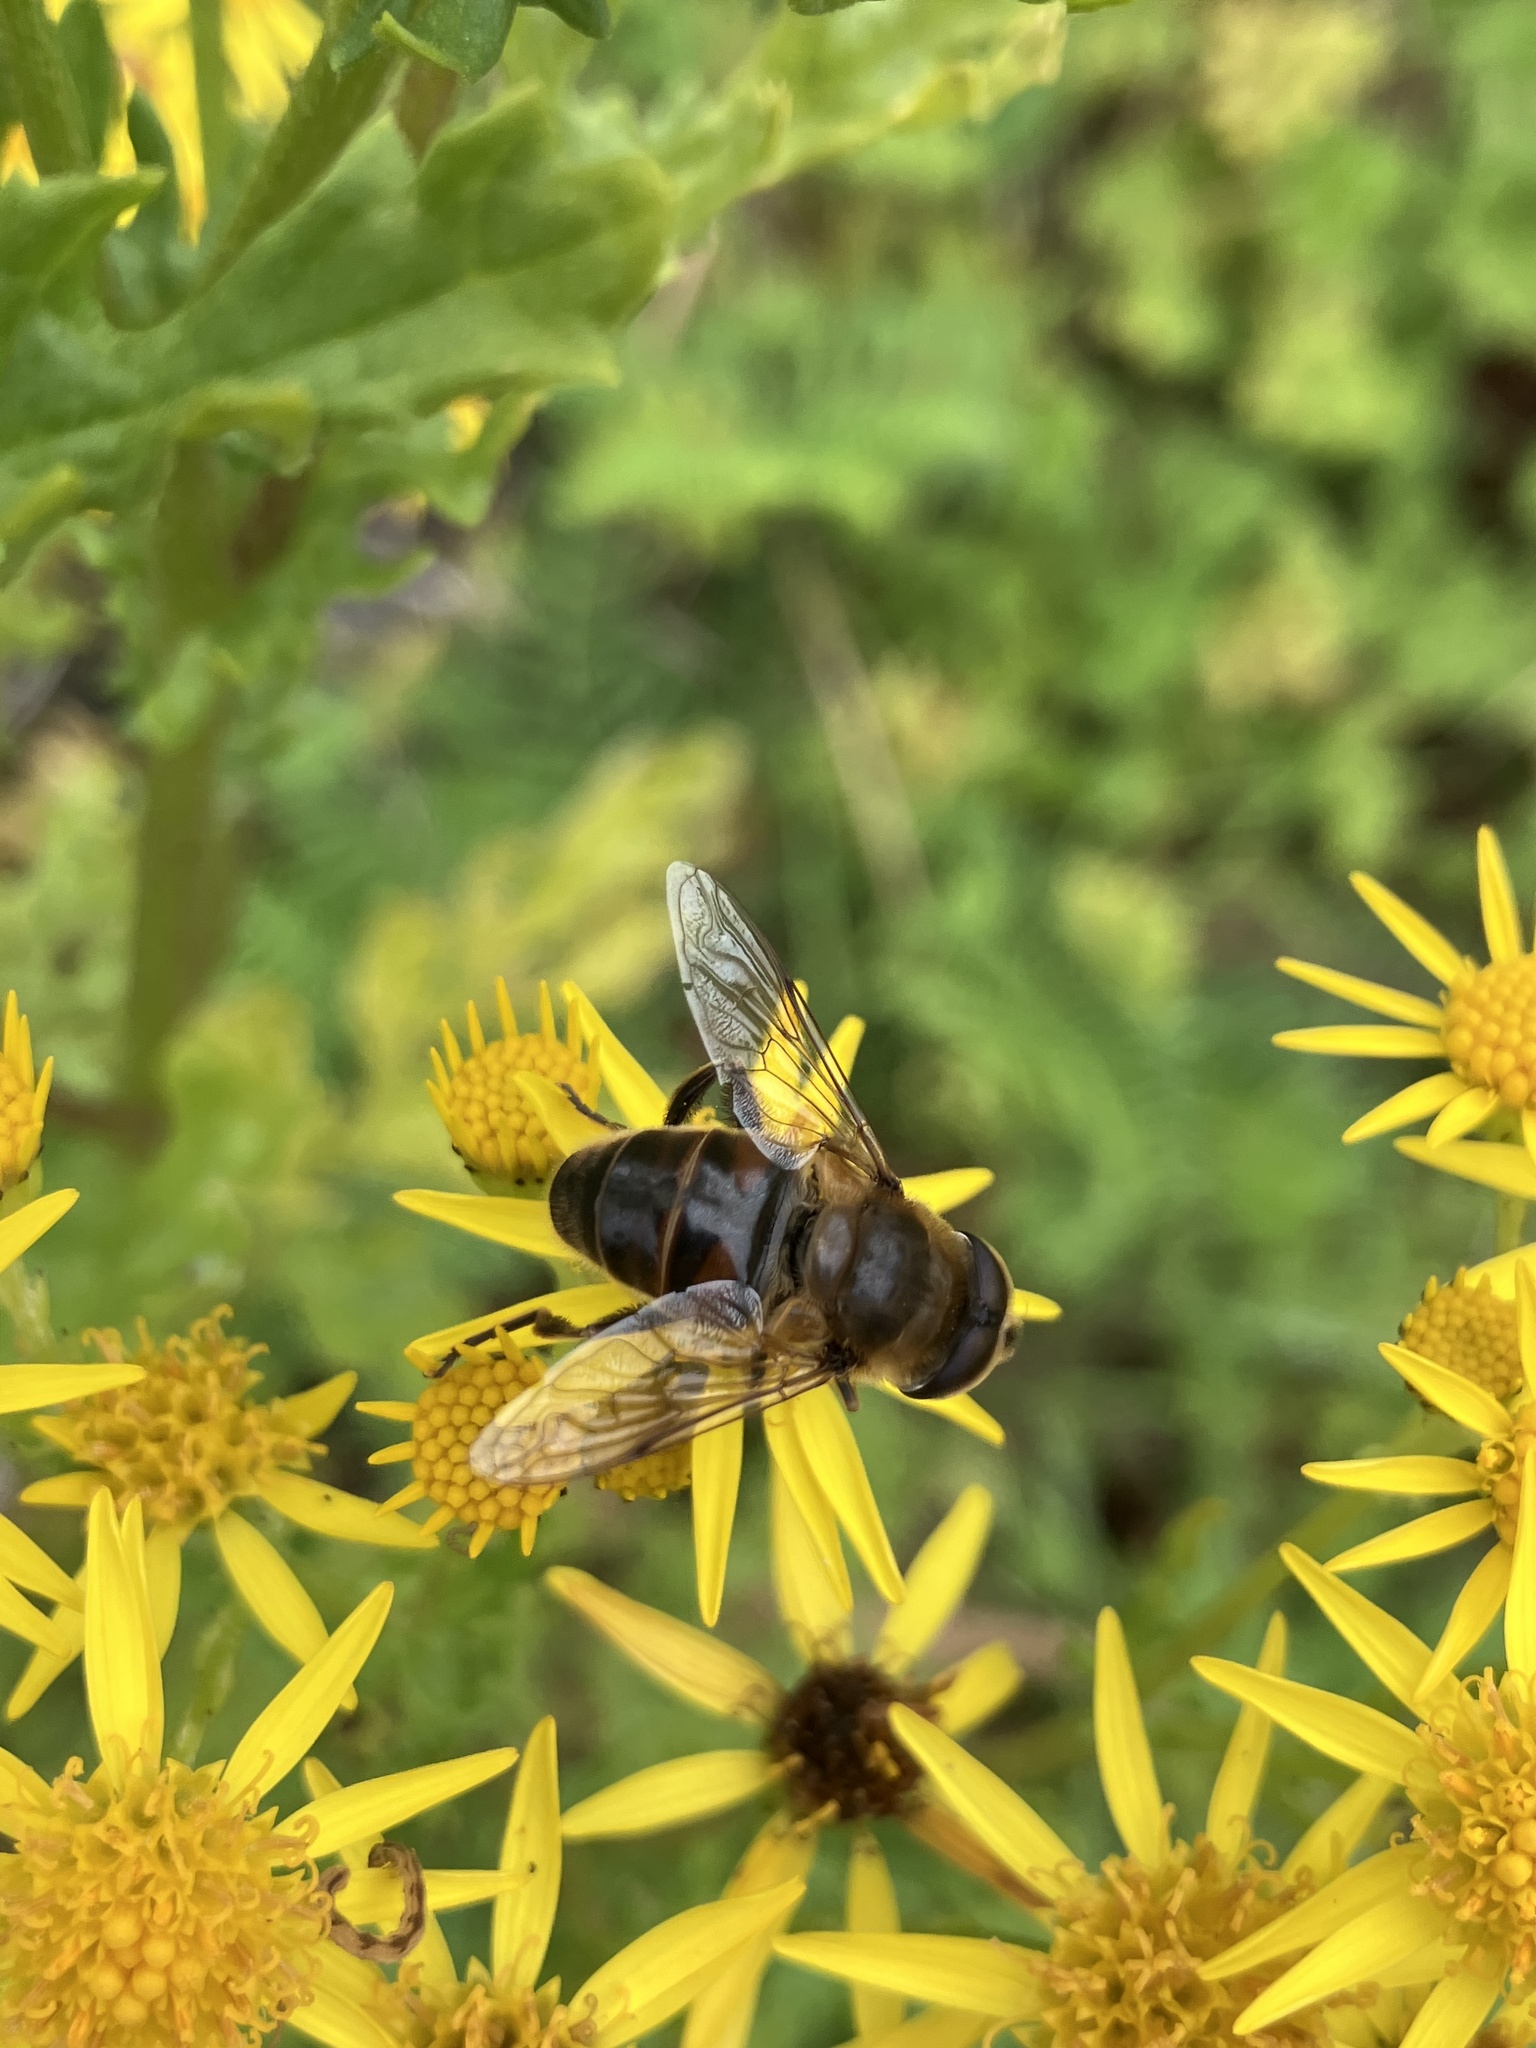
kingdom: Animalia
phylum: Arthropoda
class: Insecta
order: Diptera
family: Syrphidae
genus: Eristalis
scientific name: Eristalis tenax
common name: Drone fly
